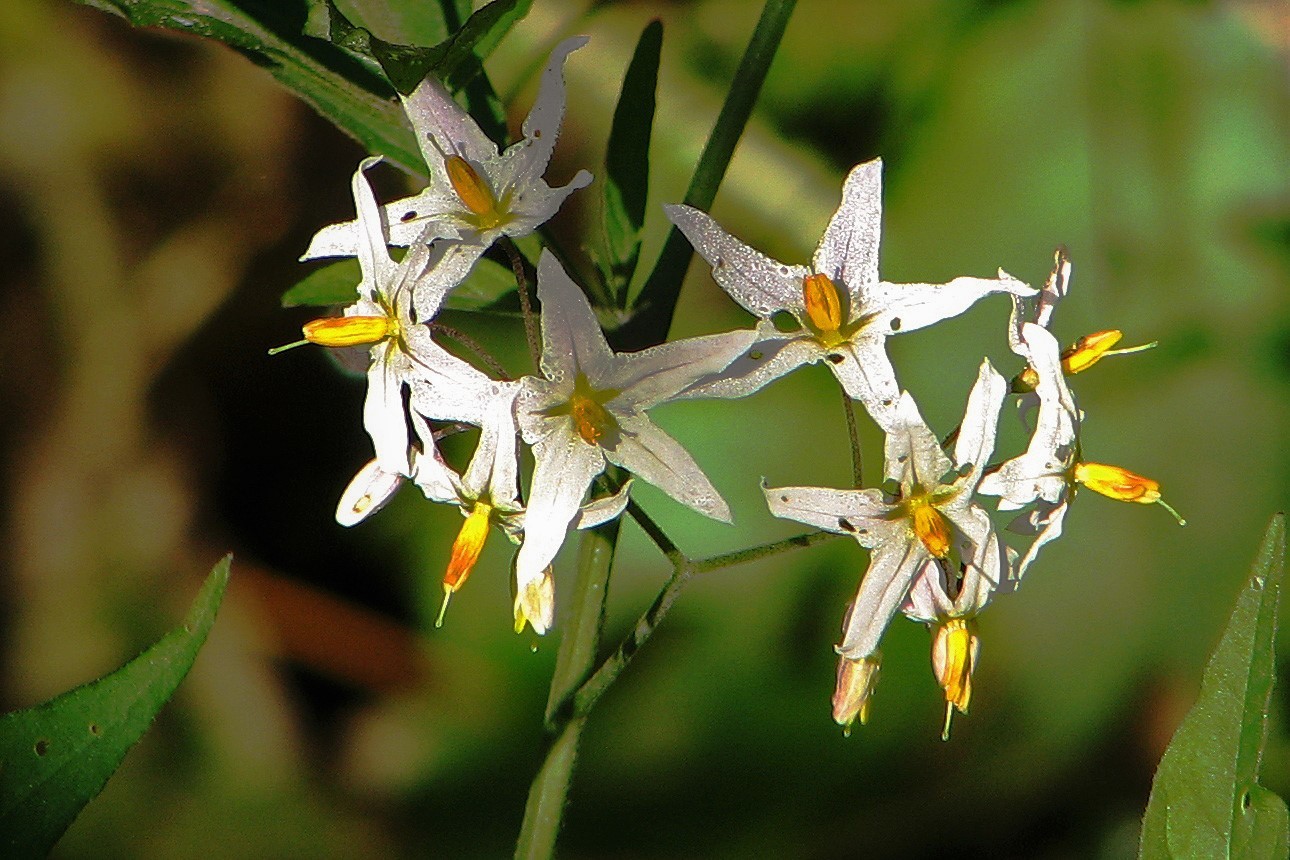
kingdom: Plantae
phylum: Tracheophyta
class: Magnoliopsida
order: Solanales
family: Solanaceae
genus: Solanum
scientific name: Solanum aloysiifolium
